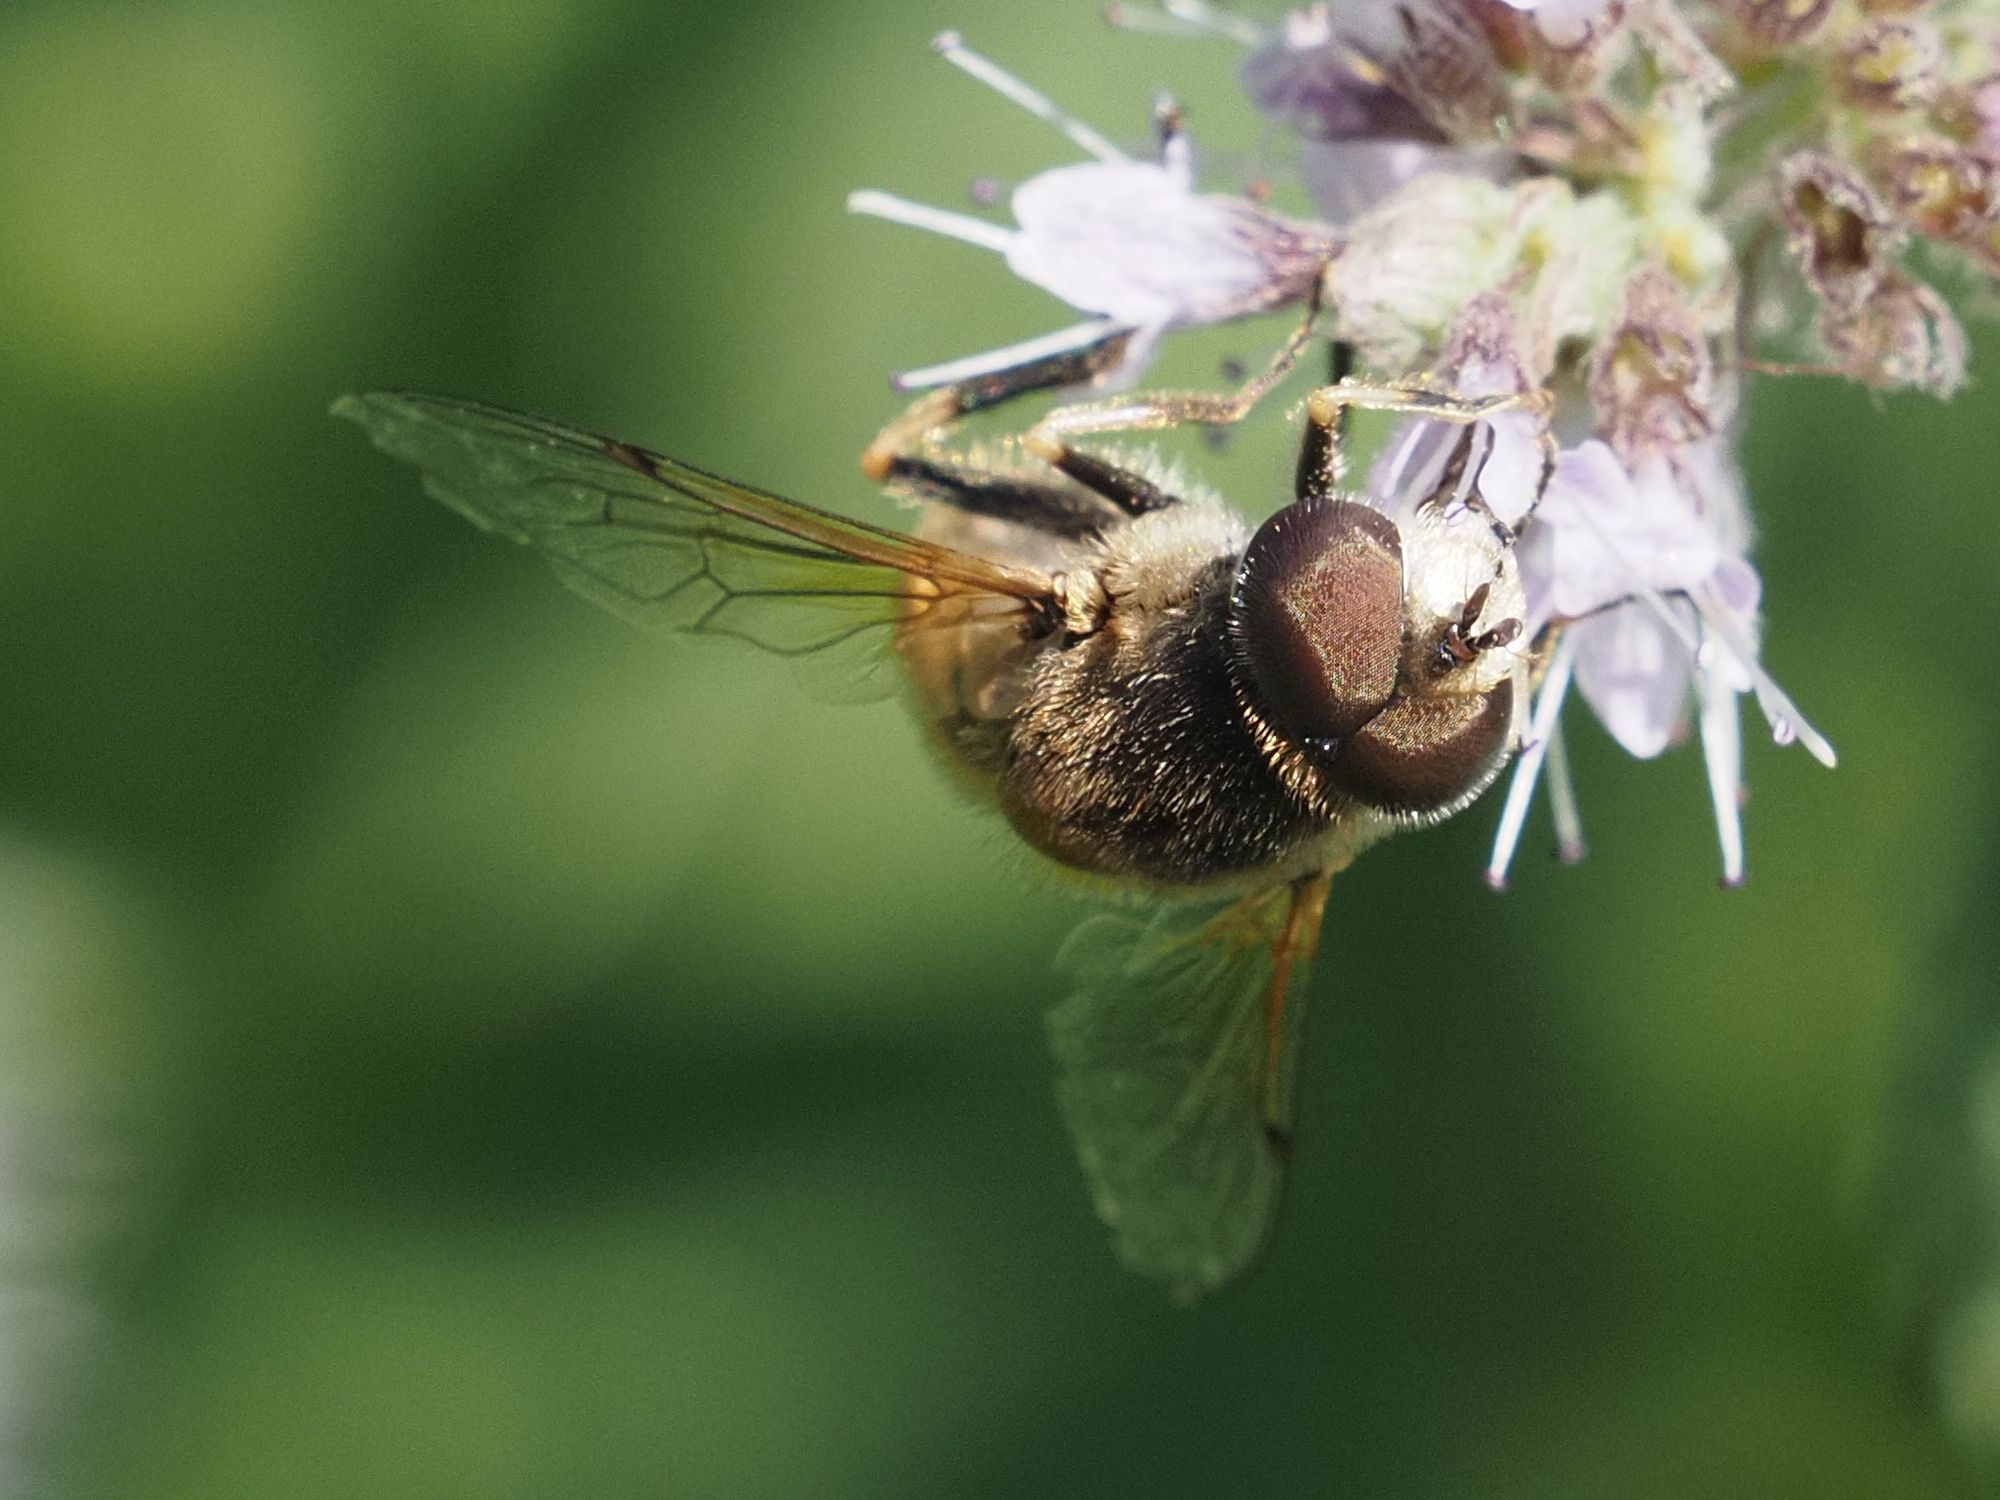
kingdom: Animalia
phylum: Arthropoda
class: Insecta
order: Diptera
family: Syrphidae
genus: Eristalis
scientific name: Eristalis arbustorum
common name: Hover fly
